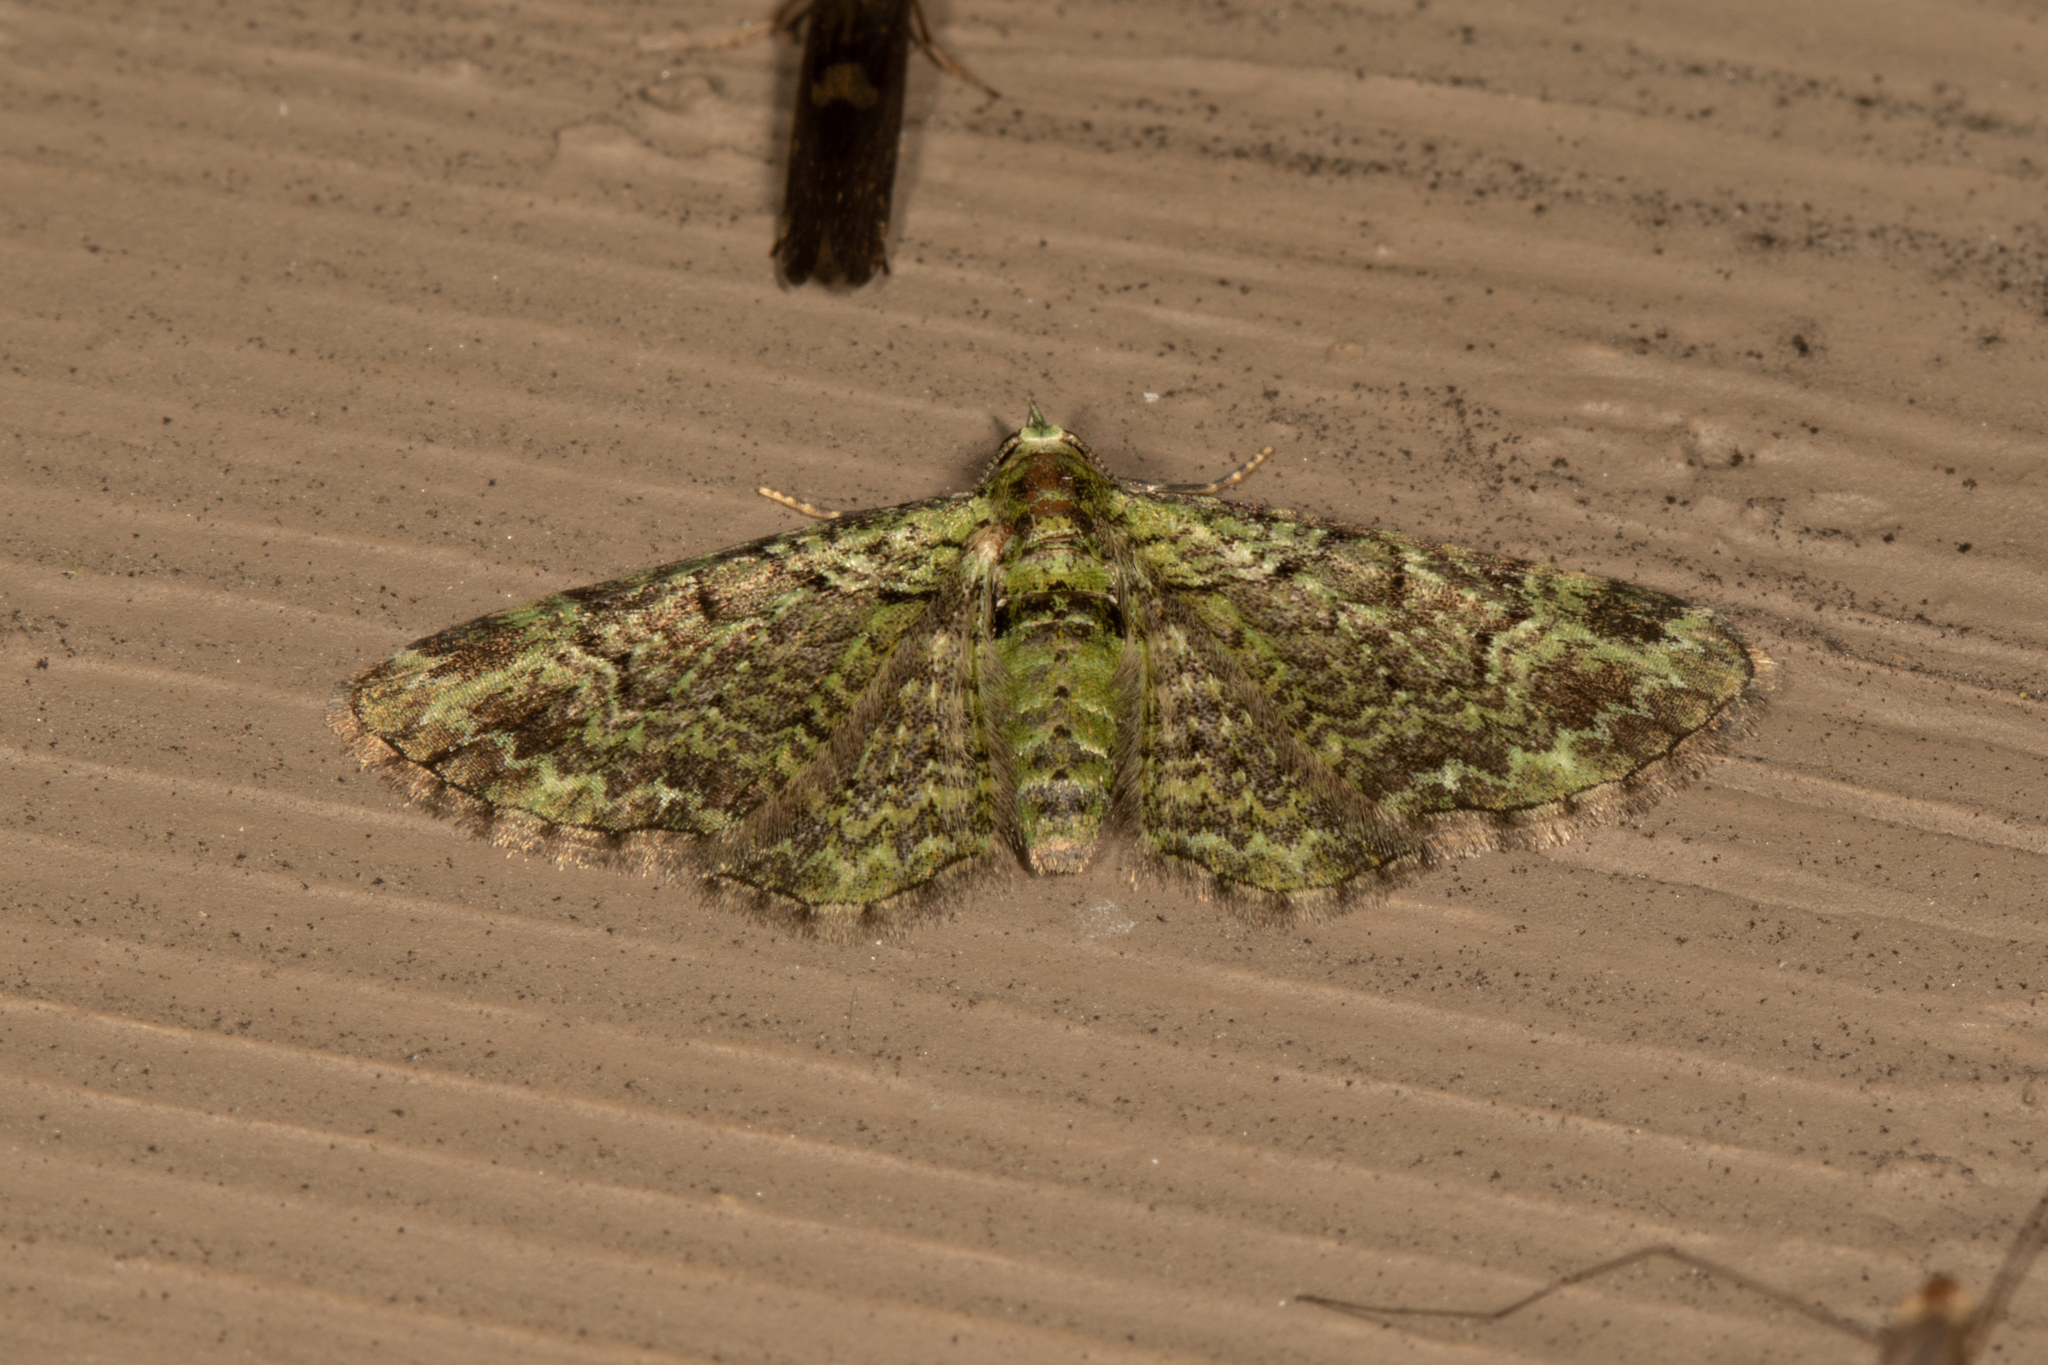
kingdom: Animalia
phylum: Arthropoda
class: Insecta
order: Lepidoptera
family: Geometridae
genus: Pasiphila
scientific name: Pasiphila rectangulata
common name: Green pug
